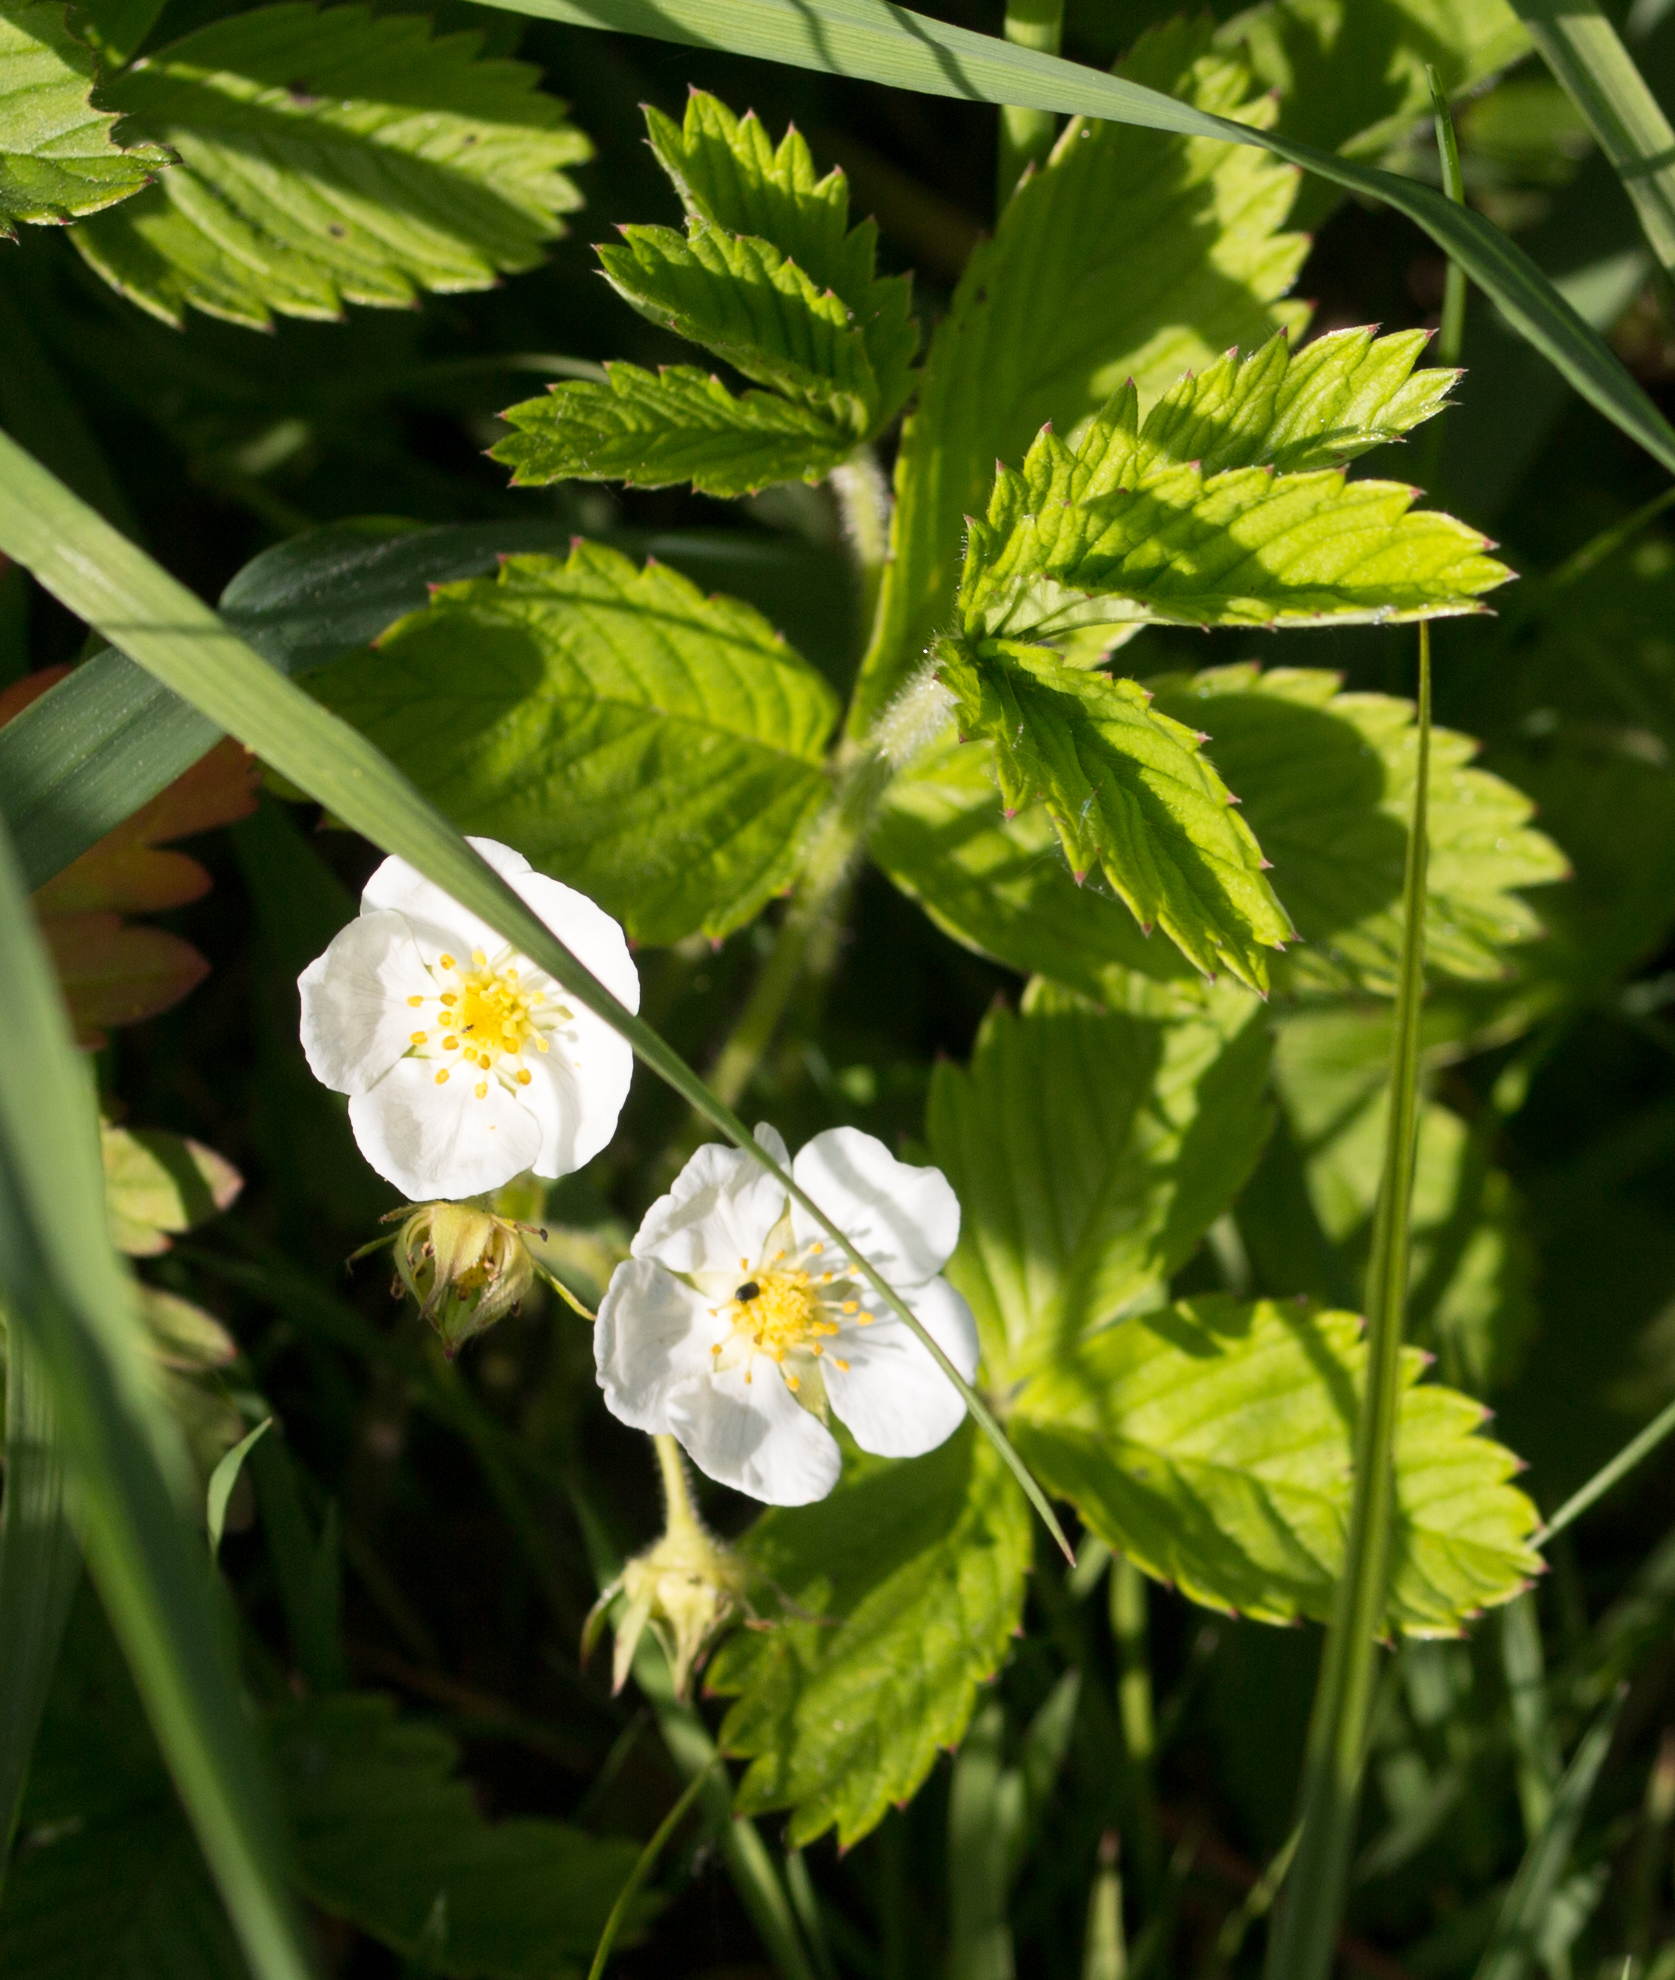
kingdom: Plantae
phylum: Tracheophyta
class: Magnoliopsida
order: Rosales
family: Rosaceae
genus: Fragaria
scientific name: Fragaria viridis
